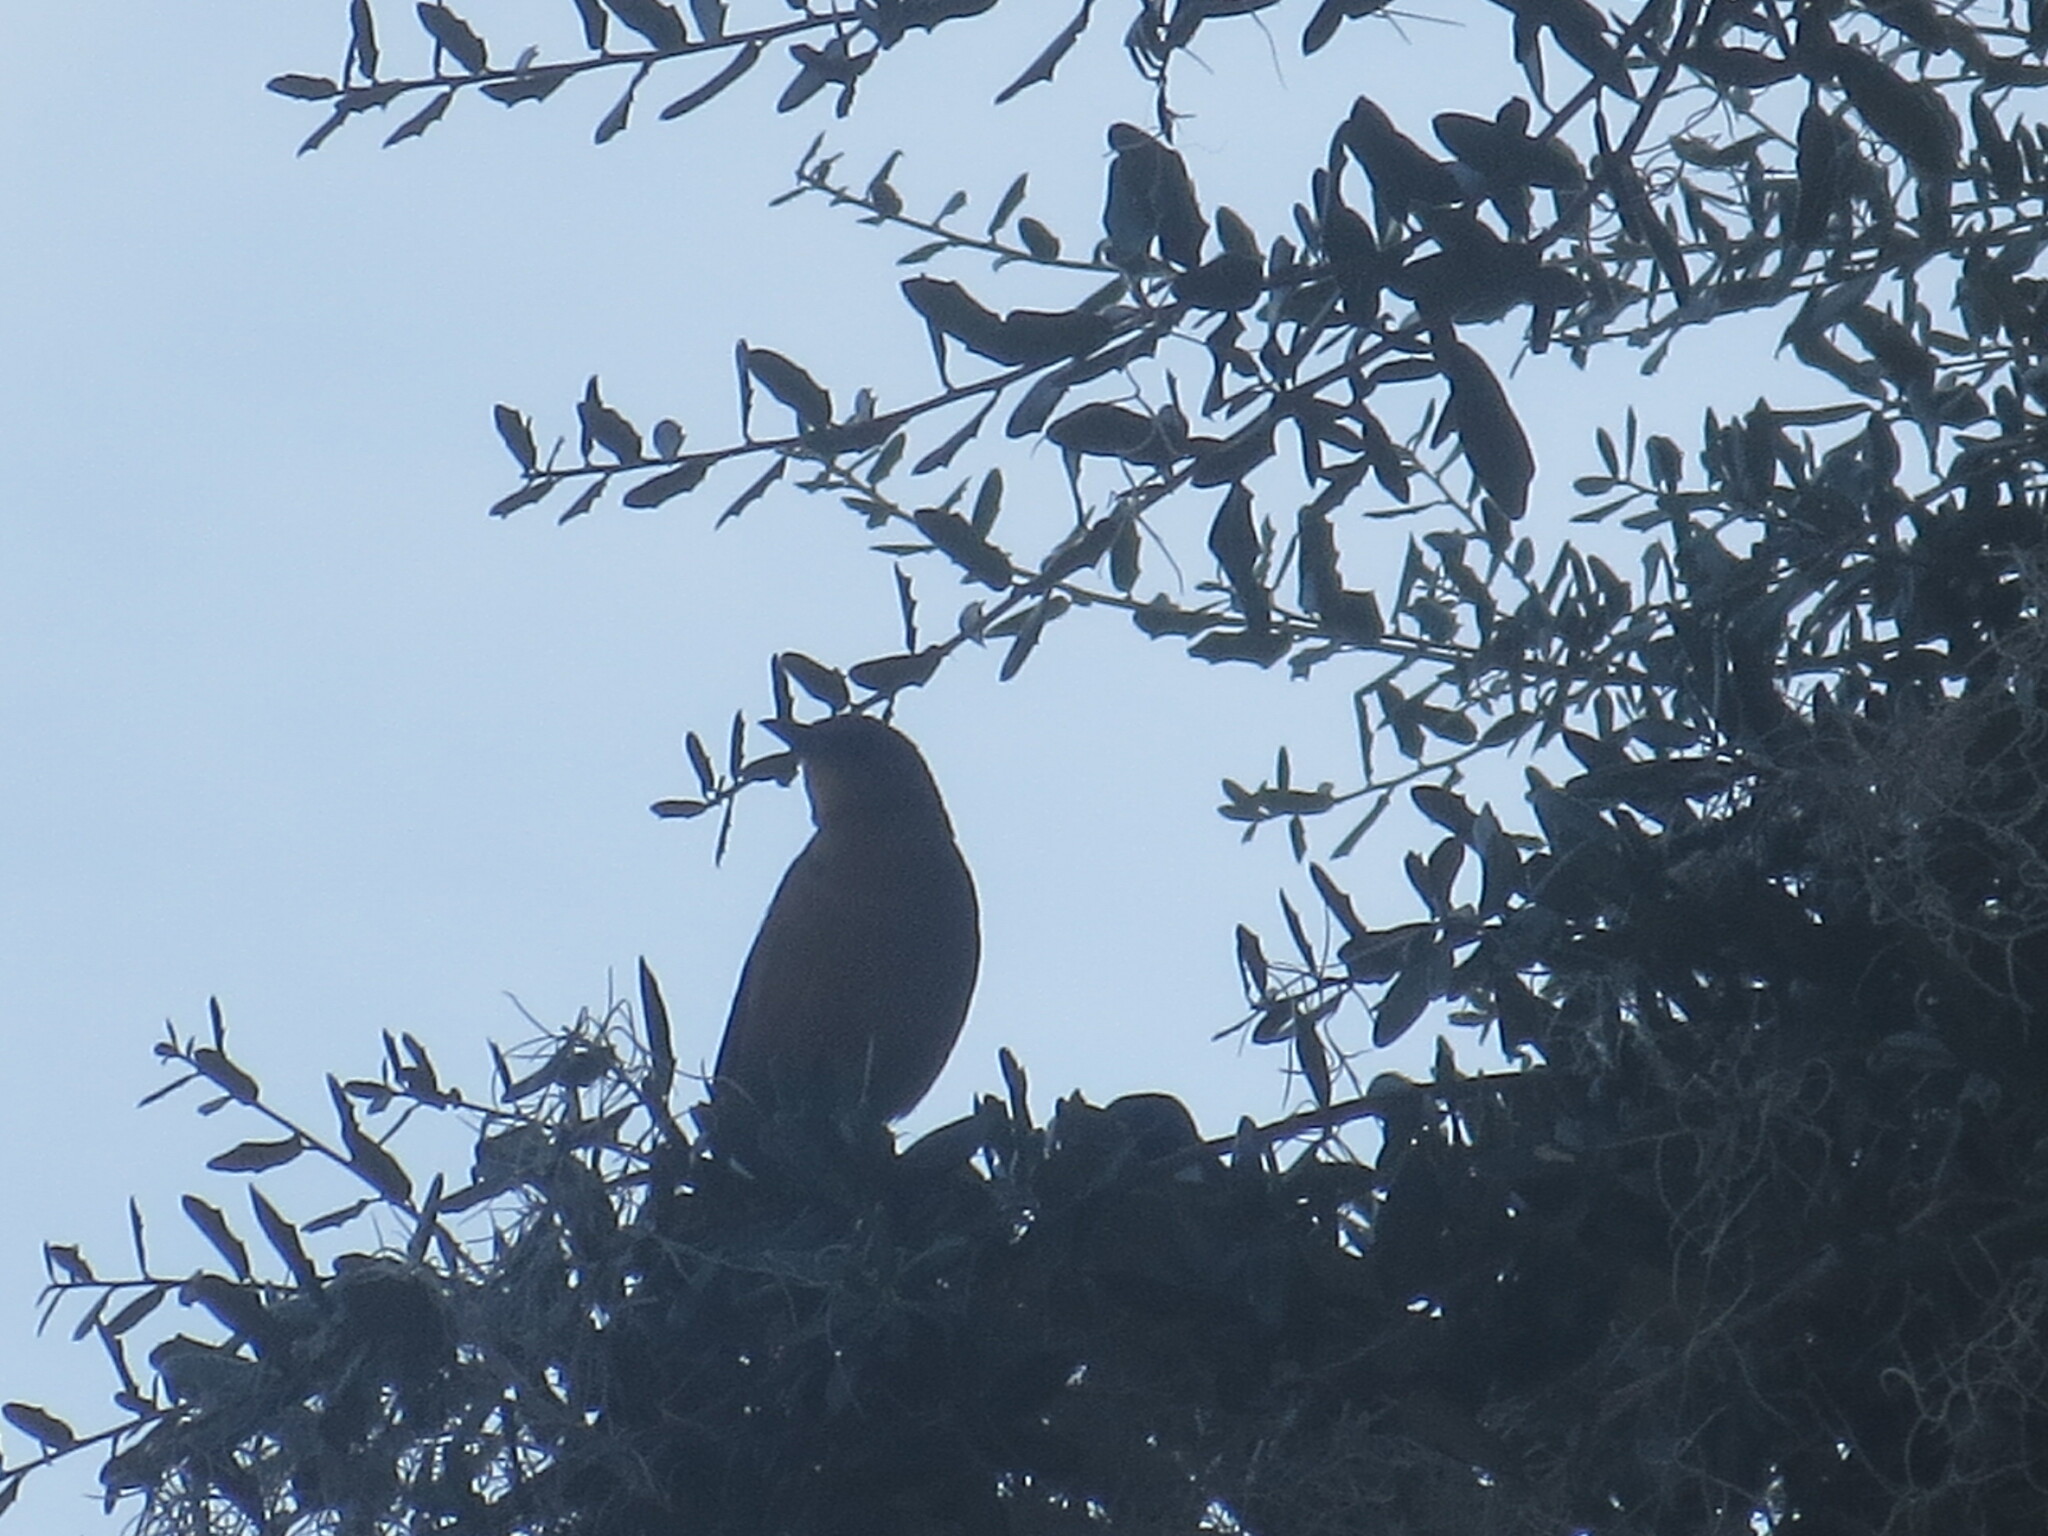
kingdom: Animalia
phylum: Chordata
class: Aves
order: Passeriformes
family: Icteridae
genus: Quiscalus
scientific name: Quiscalus major
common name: Boat-tailed grackle
